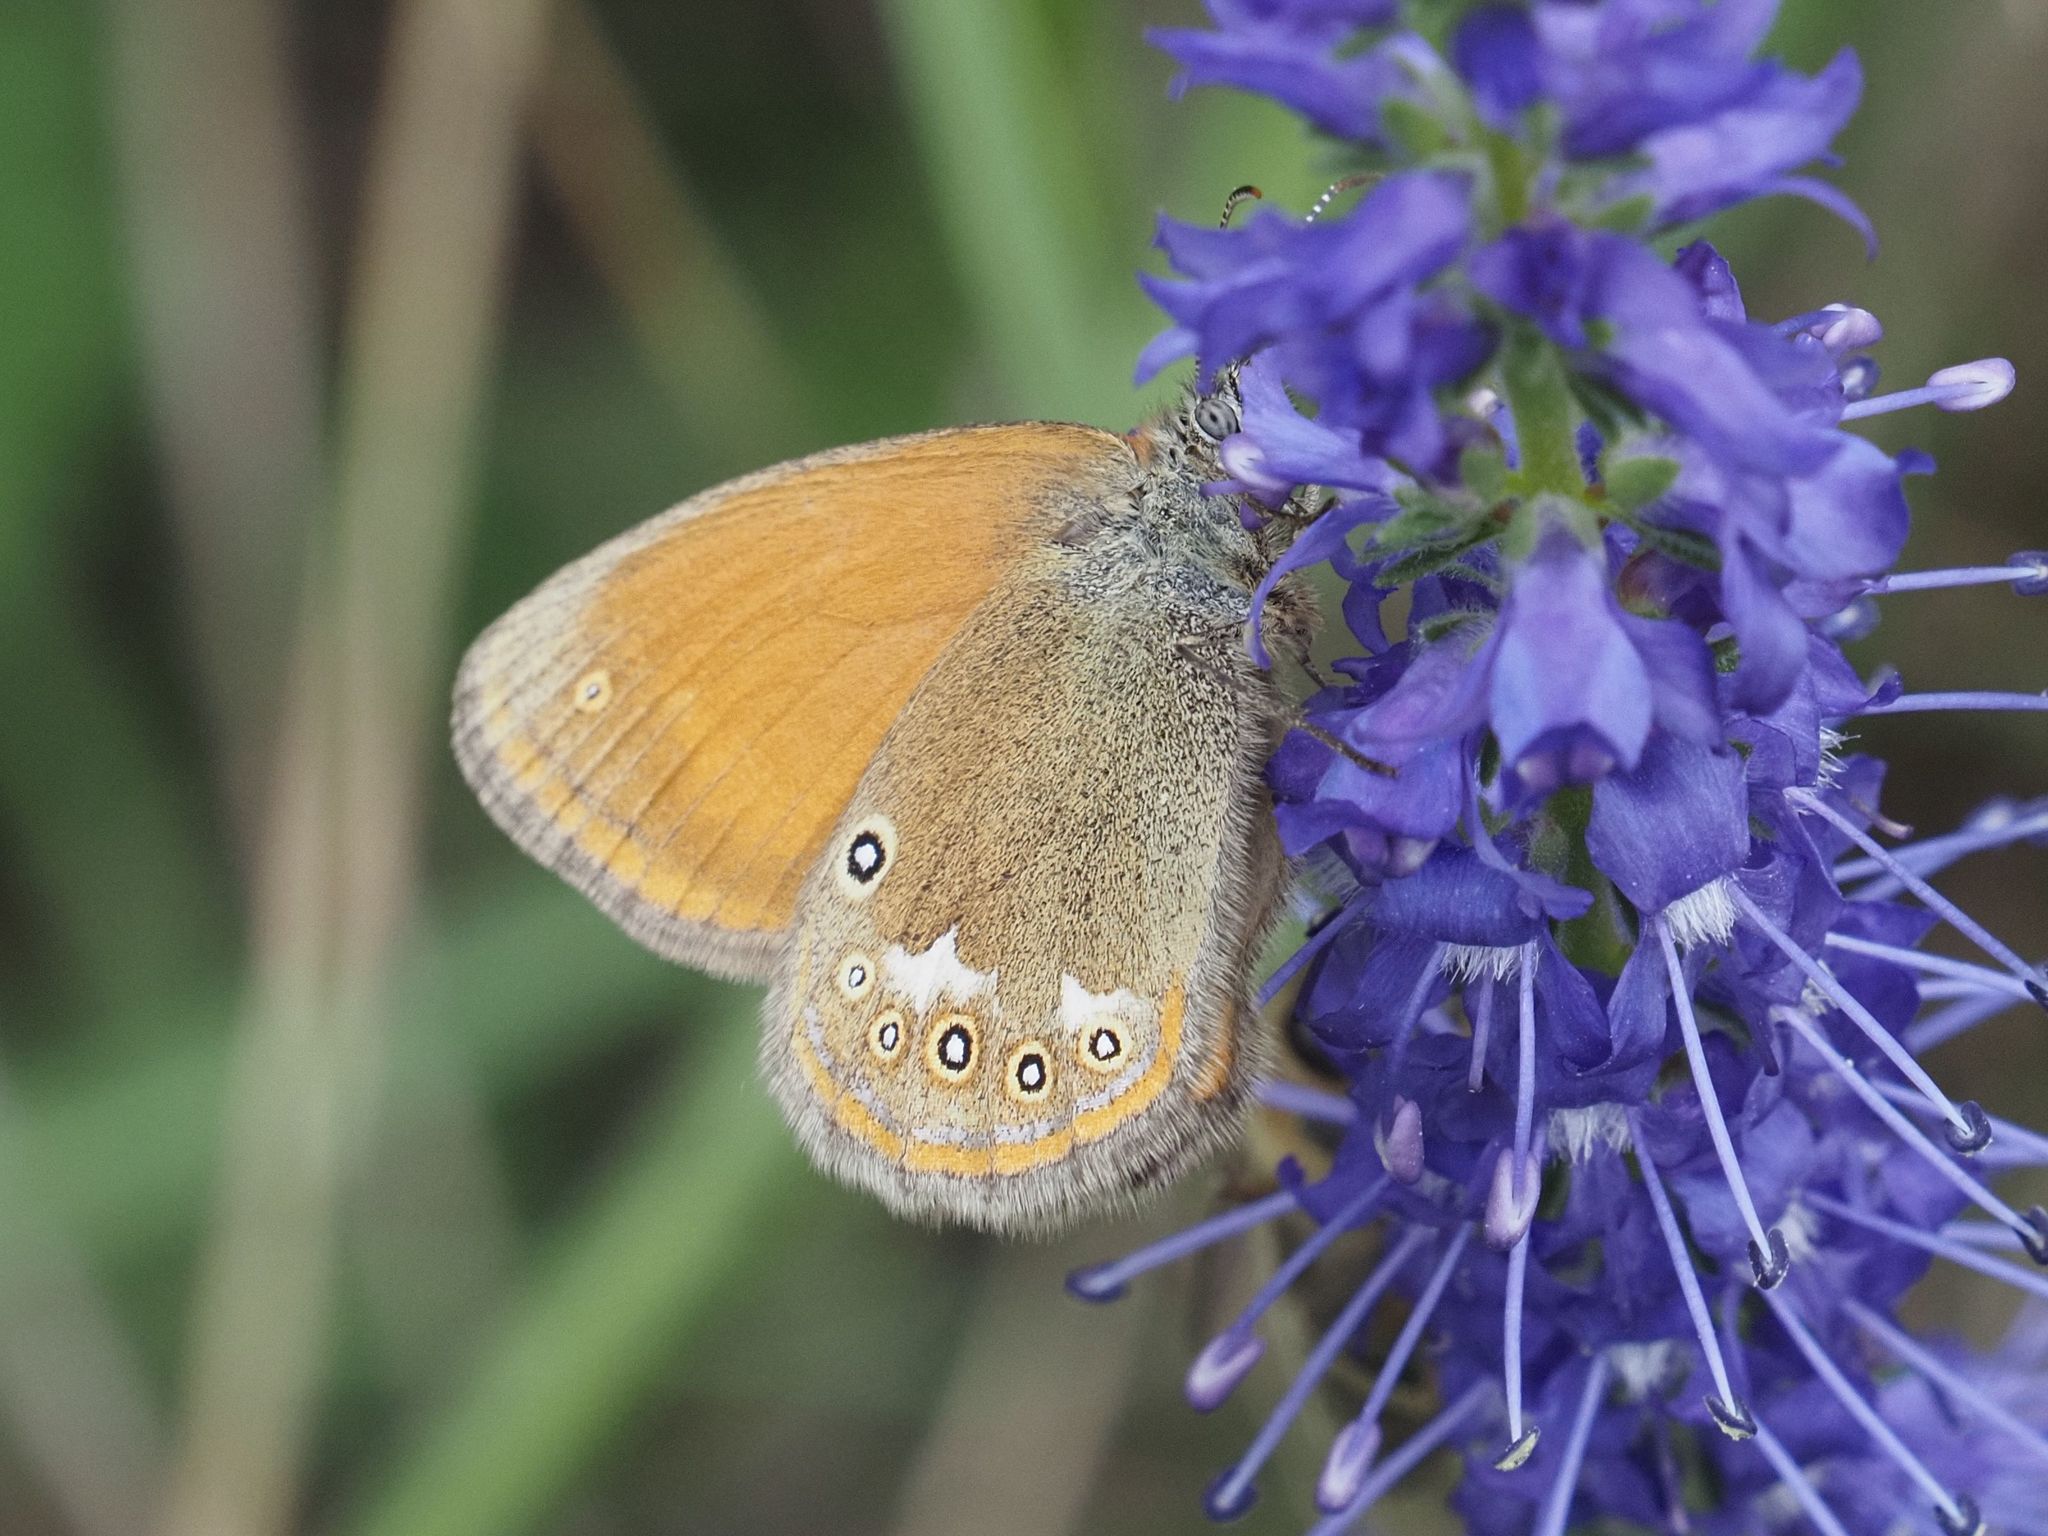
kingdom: Animalia
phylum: Arthropoda
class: Insecta
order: Lepidoptera
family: Nymphalidae
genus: Coenonympha
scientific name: Coenonympha iphis
